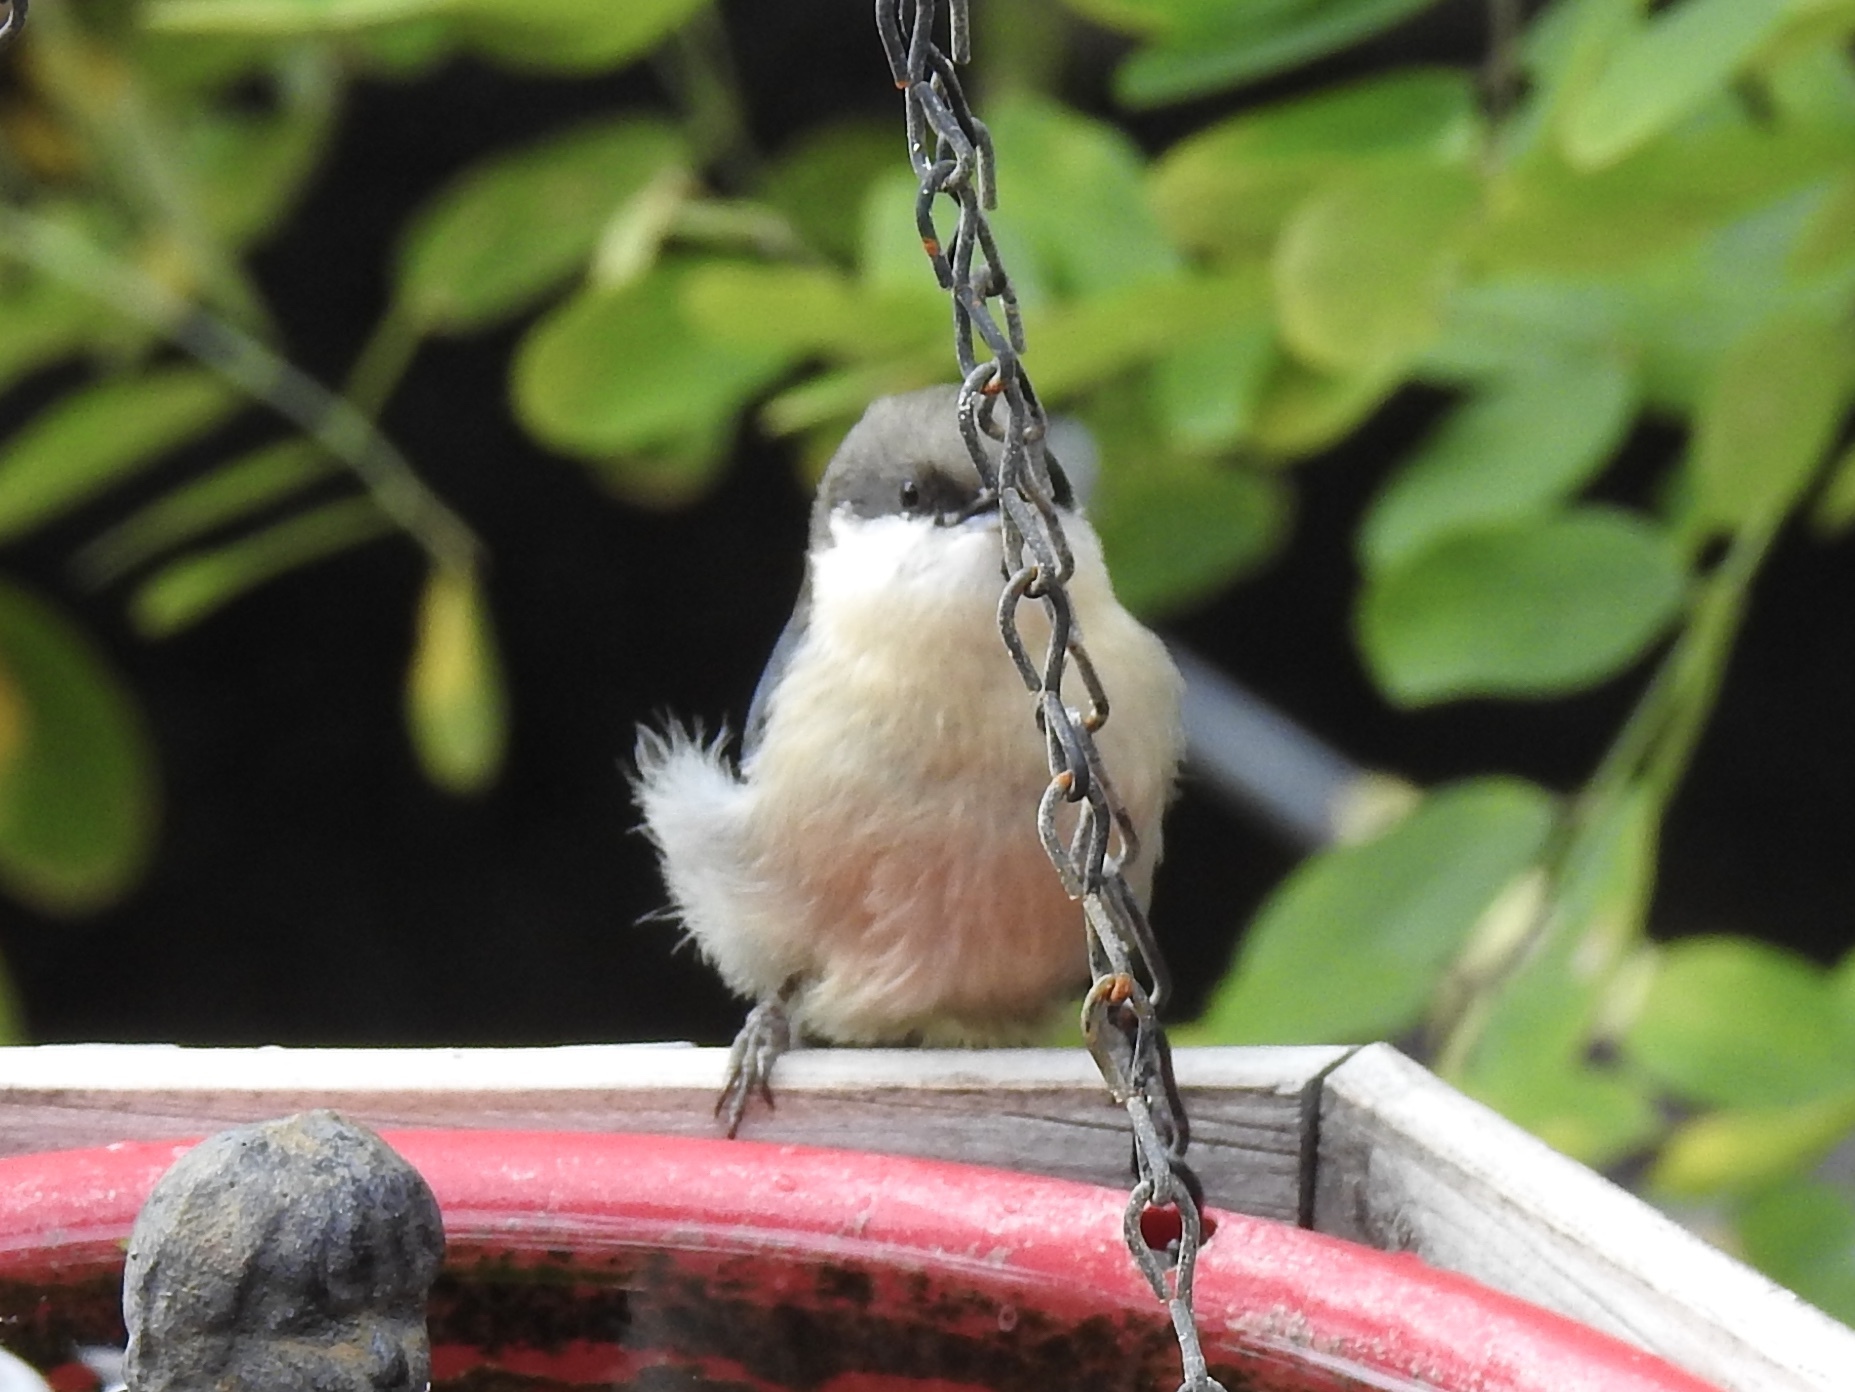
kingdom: Animalia
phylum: Chordata
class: Aves
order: Passeriformes
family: Sittidae
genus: Sitta
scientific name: Sitta pygmaea
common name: Pygmy nuthatch
